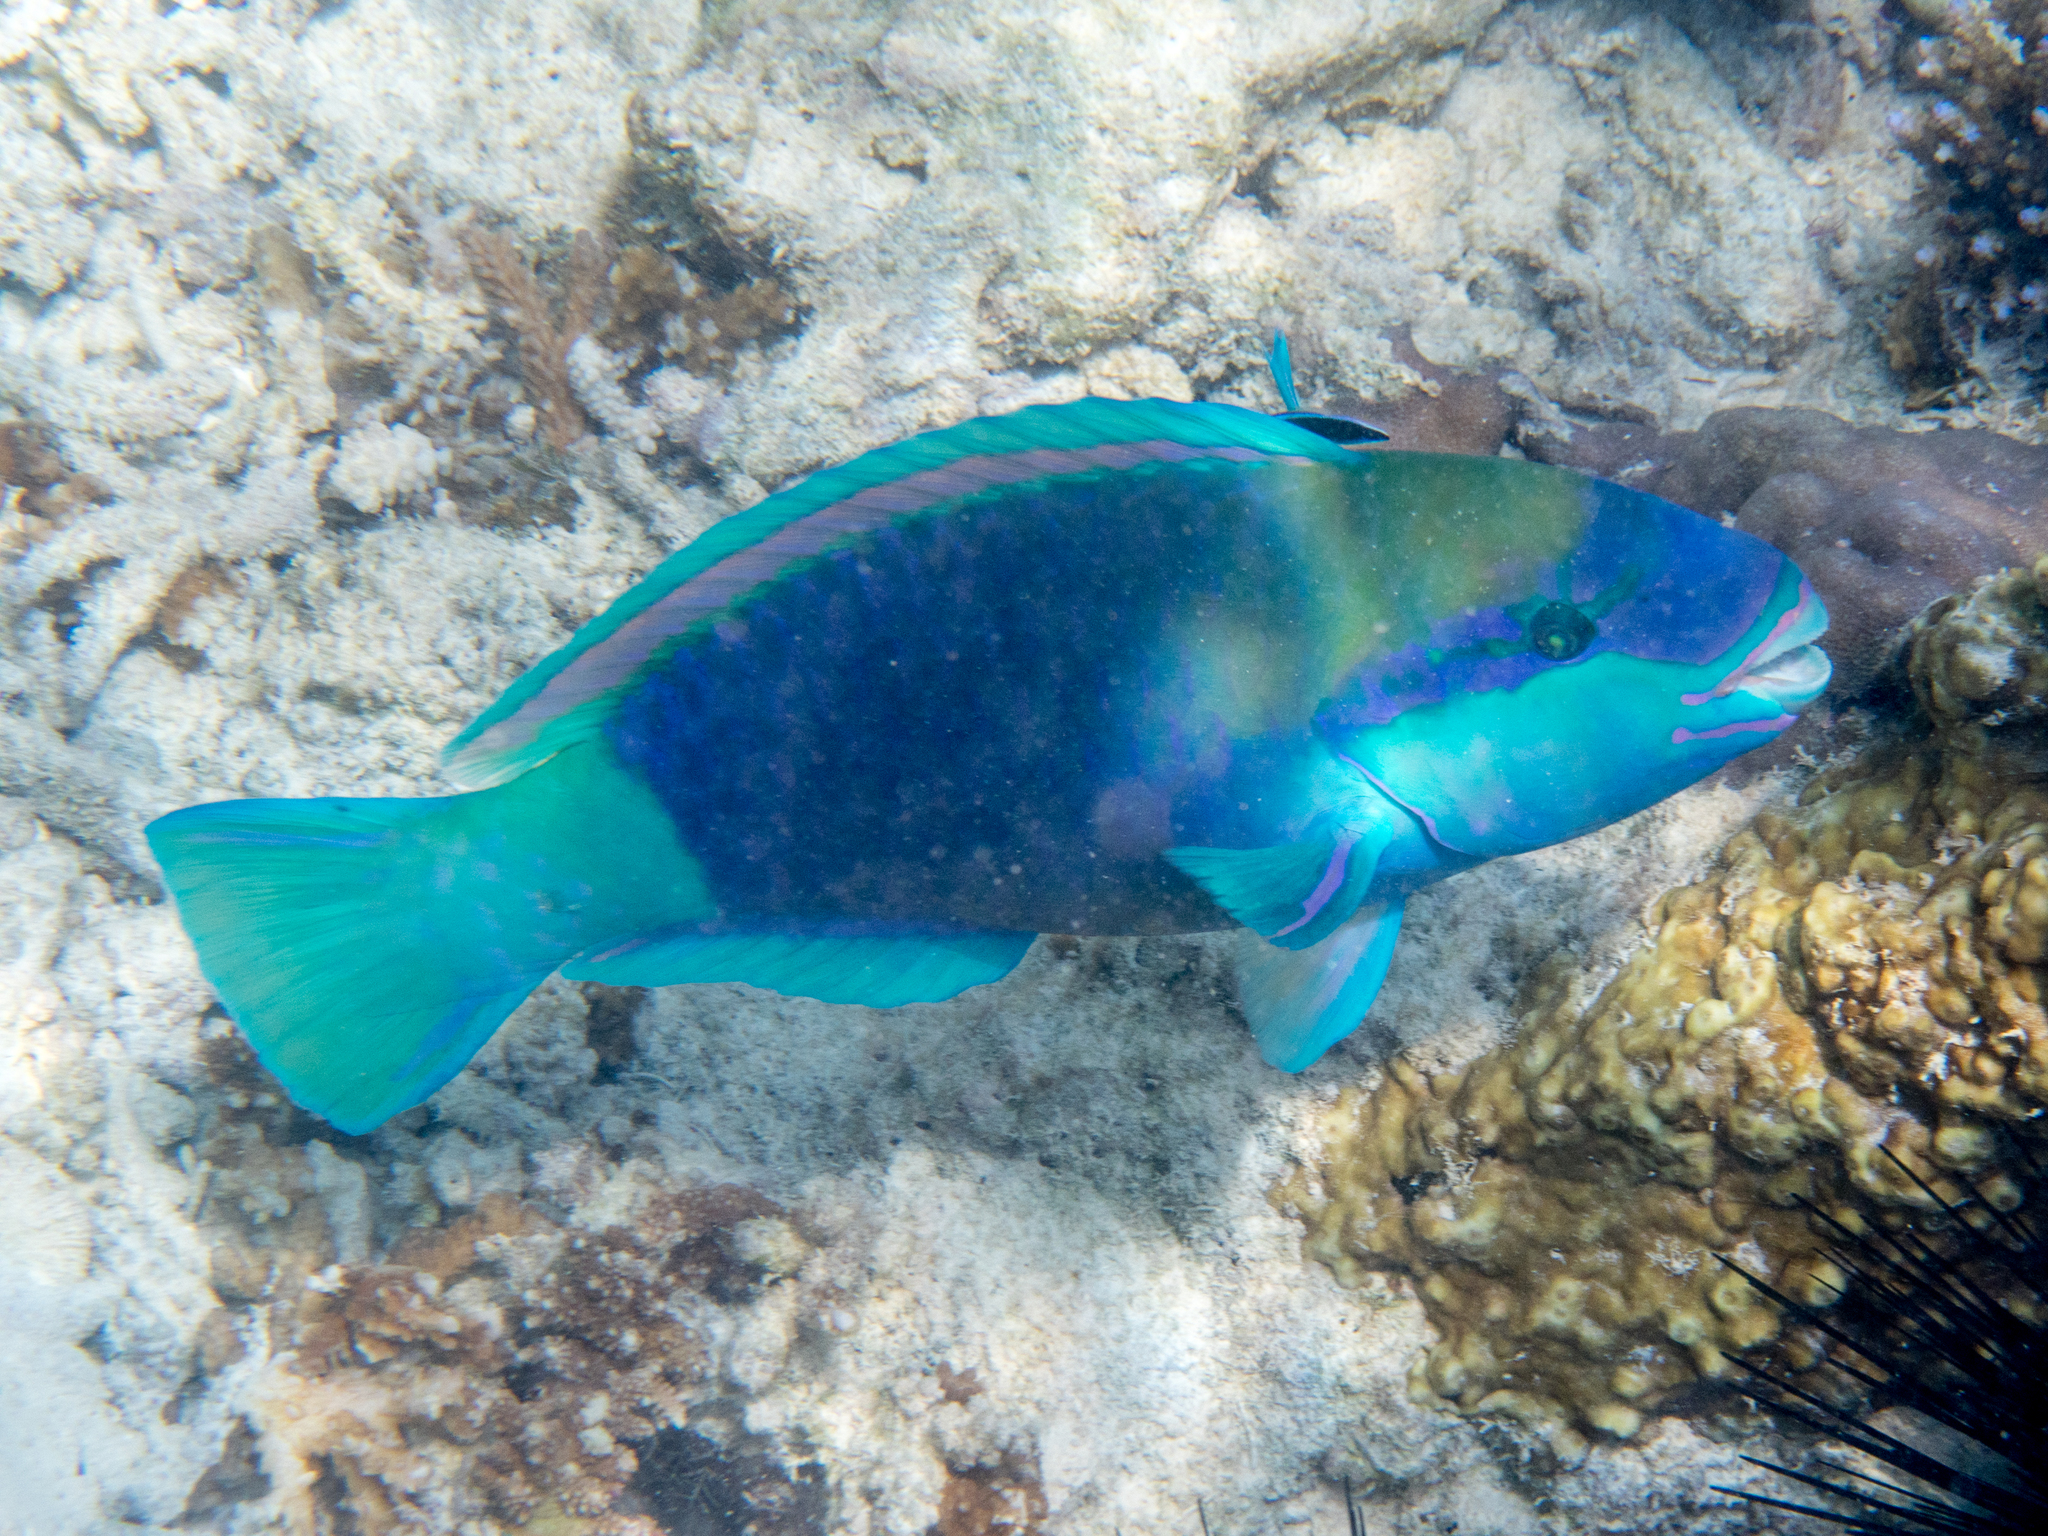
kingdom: Animalia
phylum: Chordata
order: Perciformes
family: Scaridae
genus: Chlorurus
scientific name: Chlorurus sordidus
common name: Bullethead parrotfish
